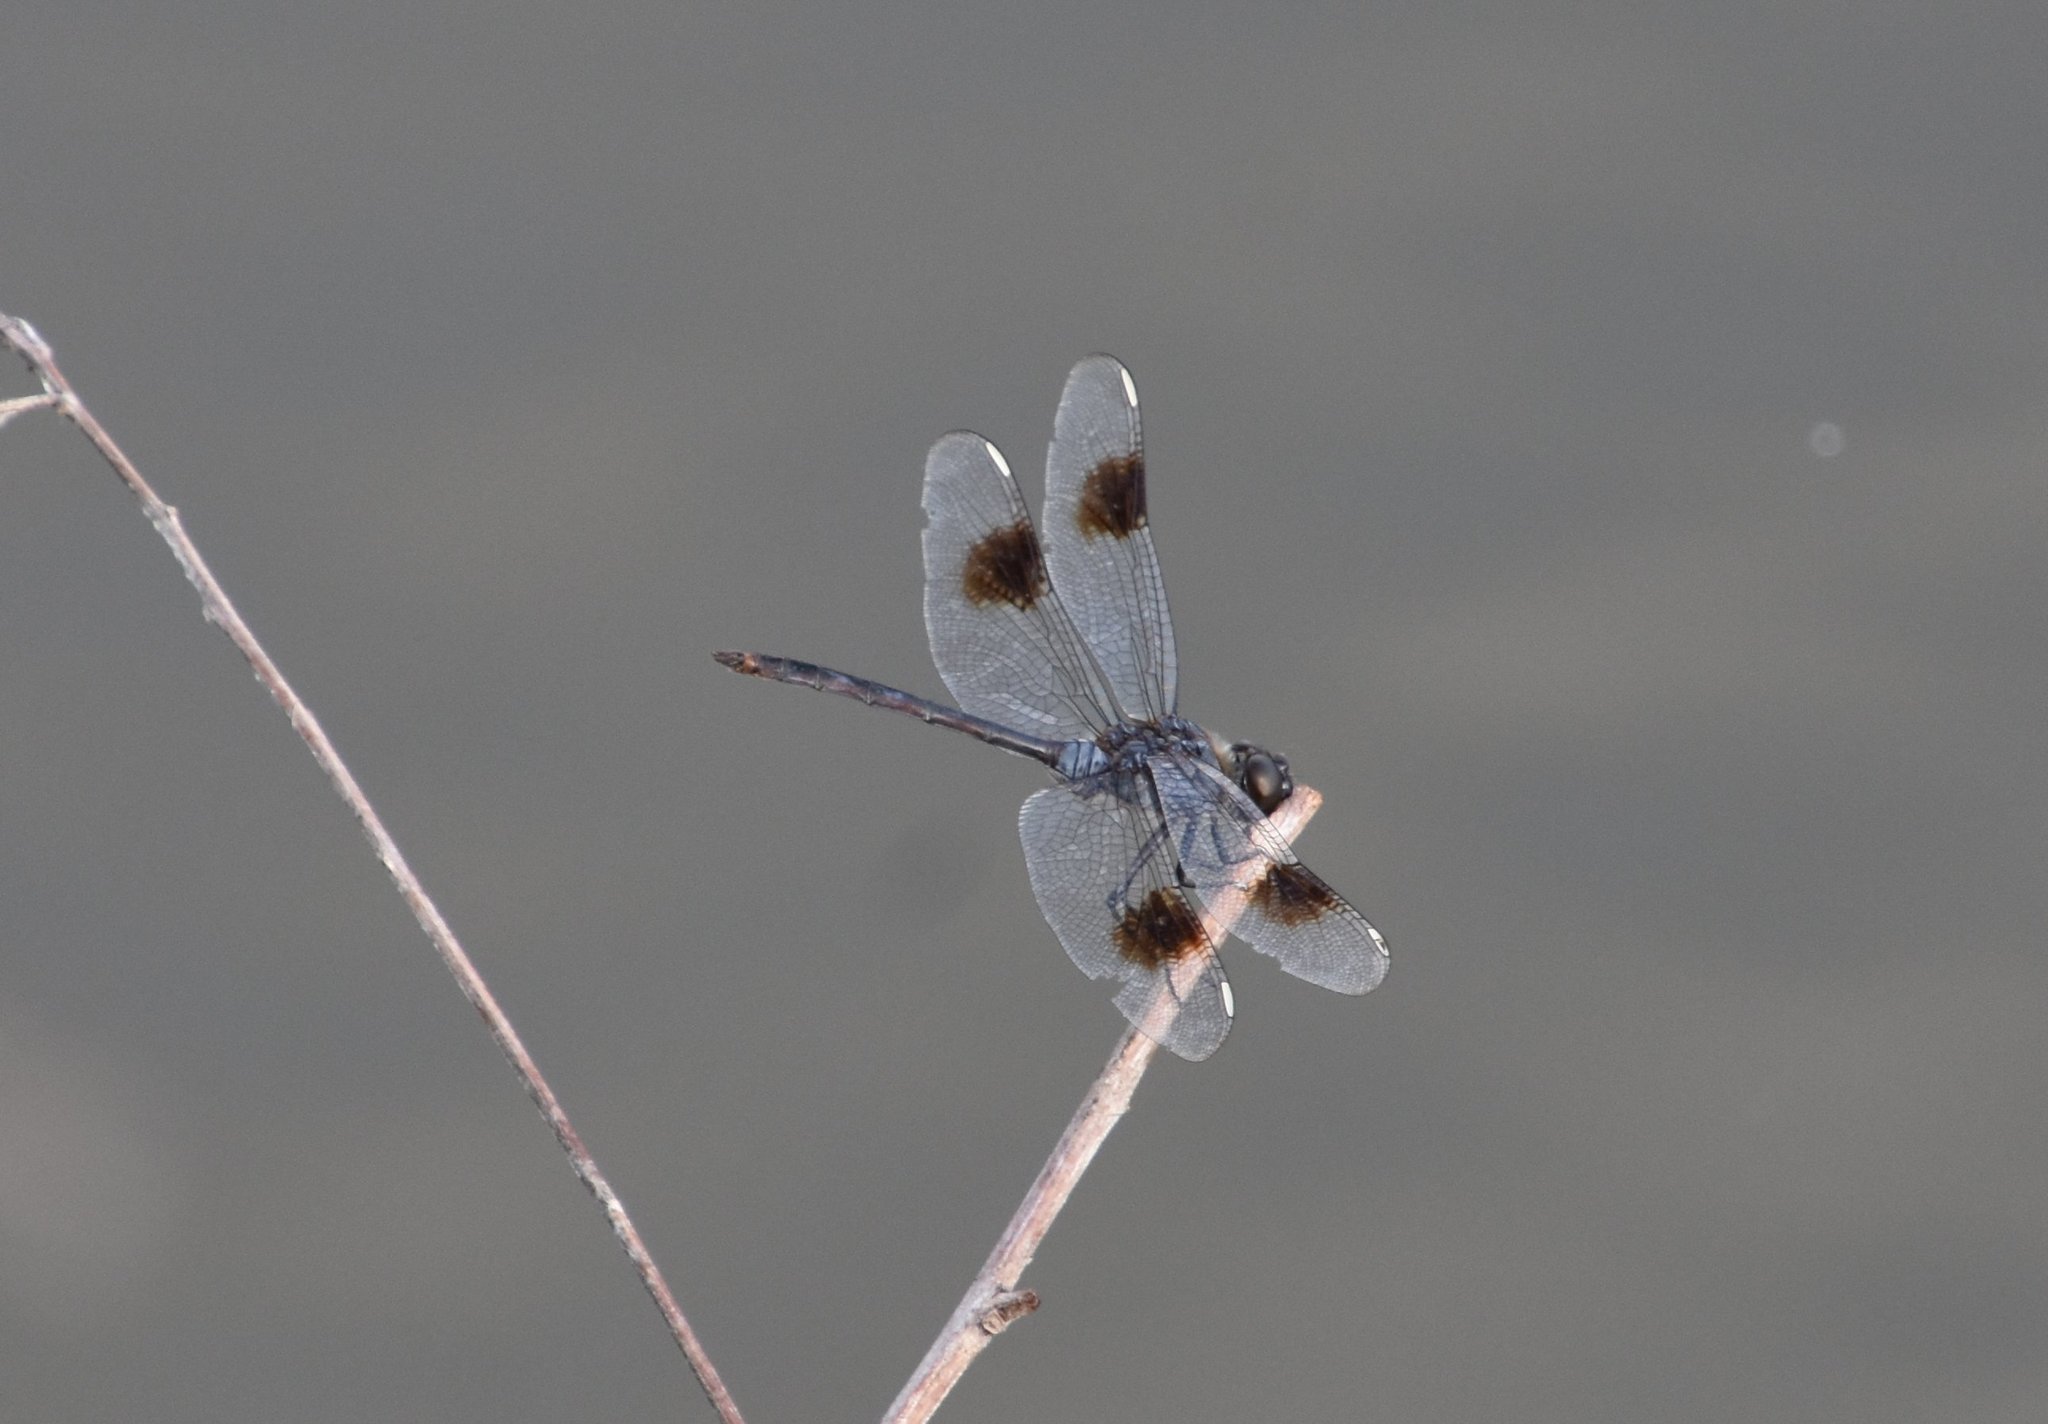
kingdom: Animalia
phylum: Arthropoda
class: Insecta
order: Odonata
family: Libellulidae
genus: Brachymesia
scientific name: Brachymesia gravida
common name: Four-spotted pennant
